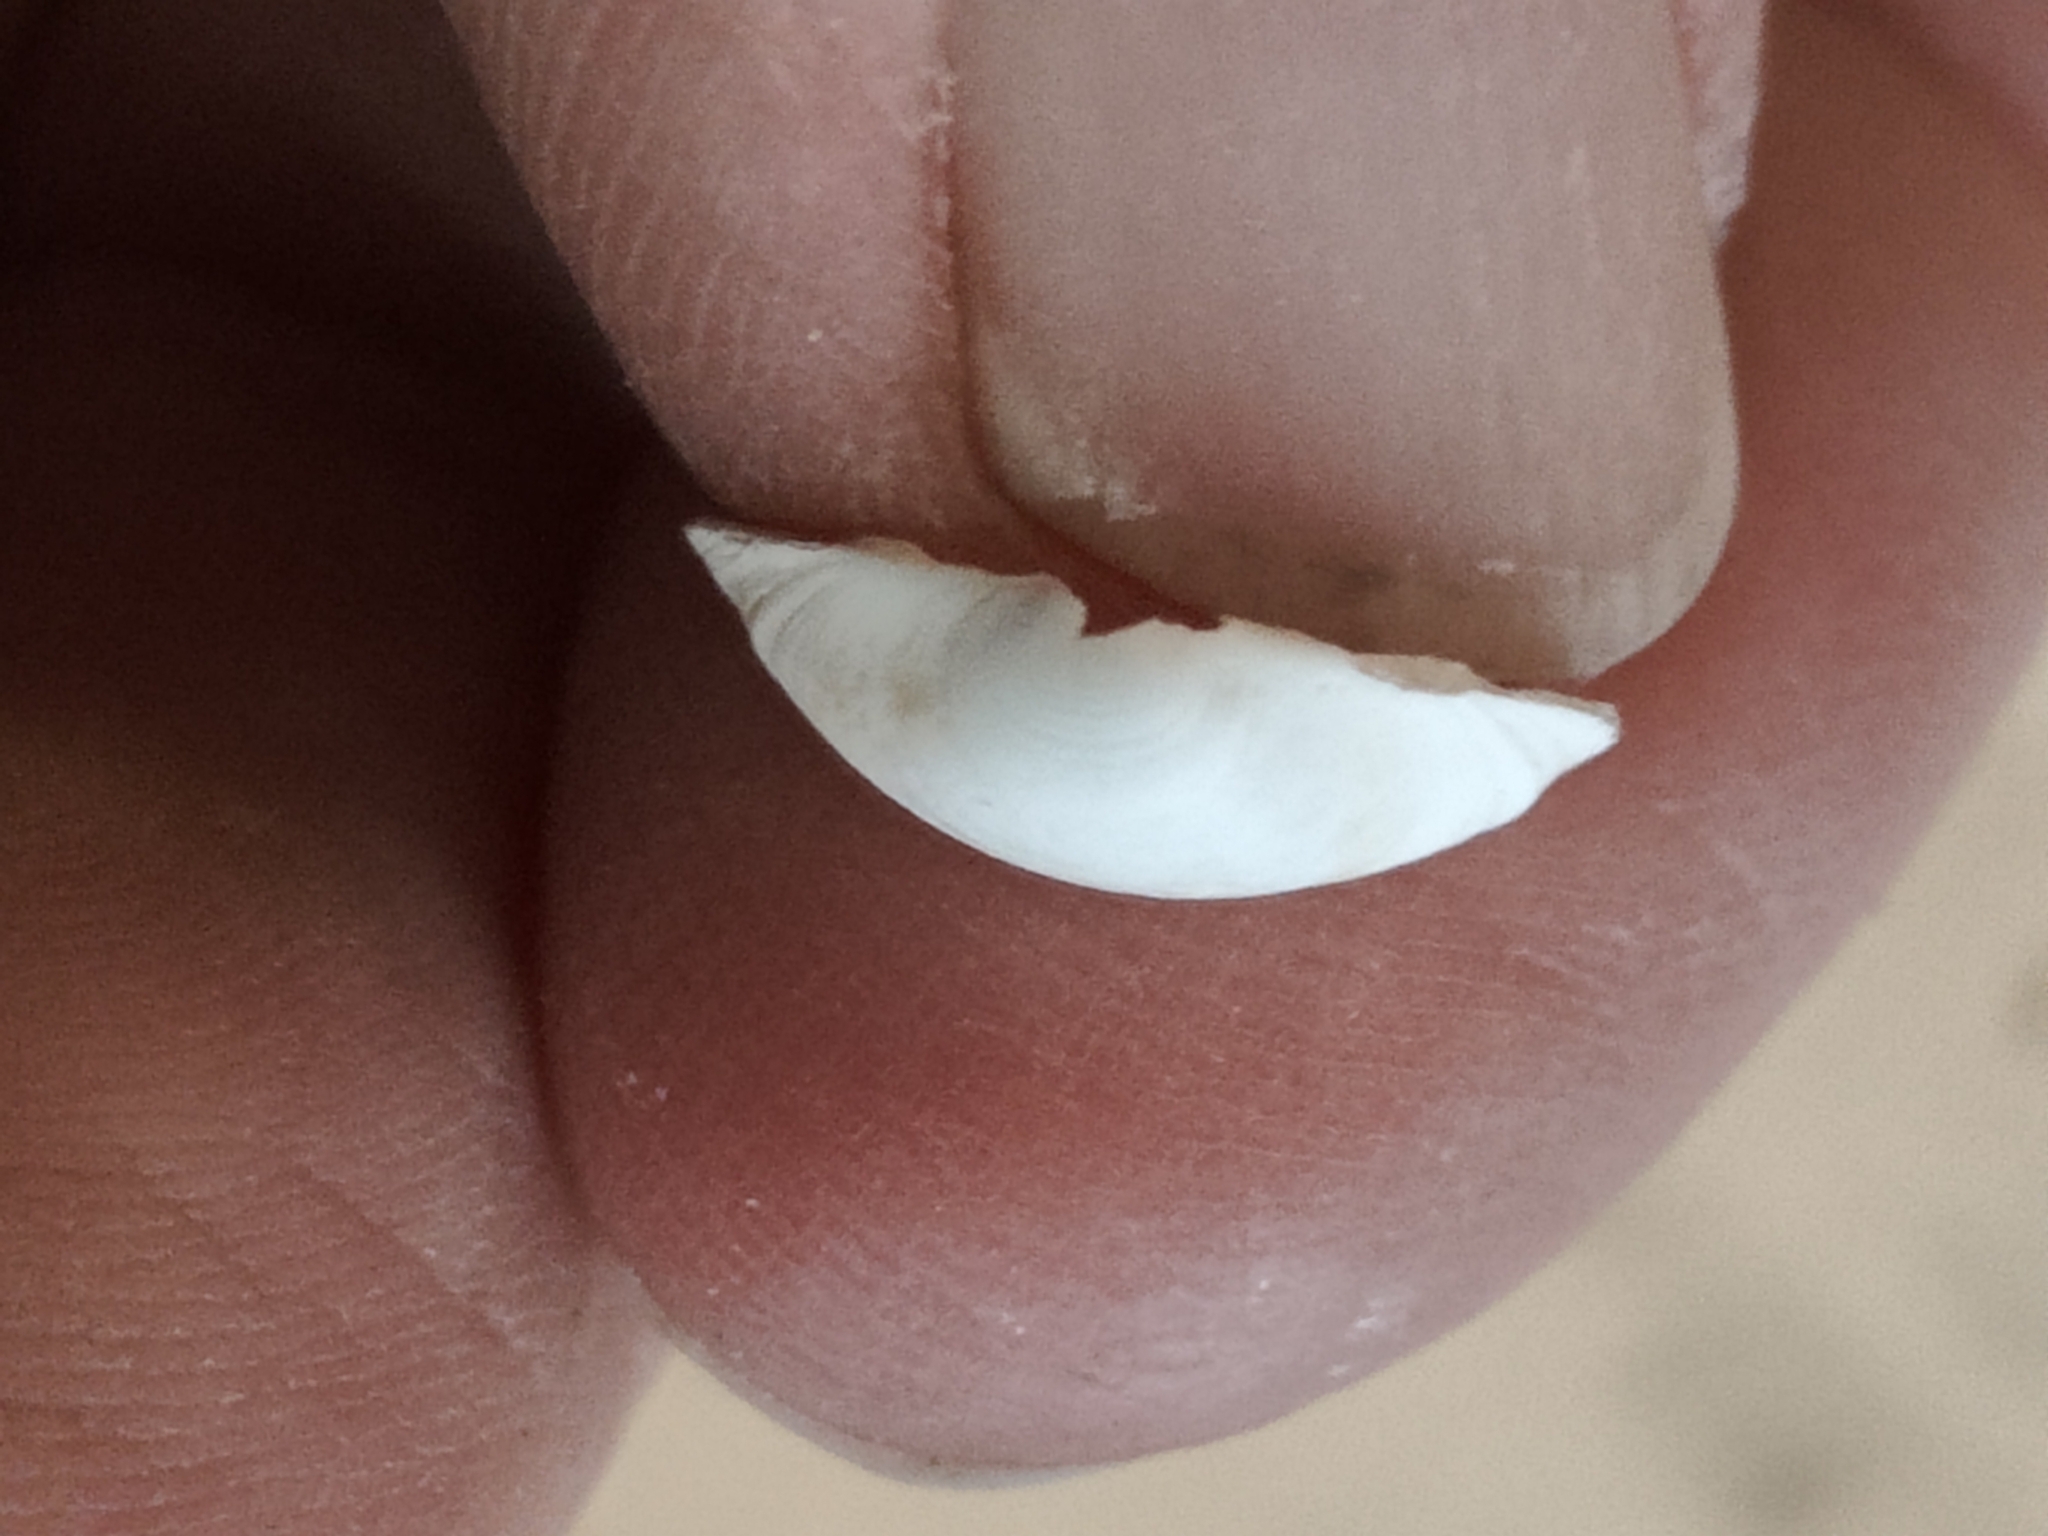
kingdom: Animalia
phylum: Mollusca
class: Bivalvia
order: Sphaeriida
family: Sphaeriidae
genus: Sphaerium
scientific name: Sphaerium striatinum
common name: Striated fingernailclam
